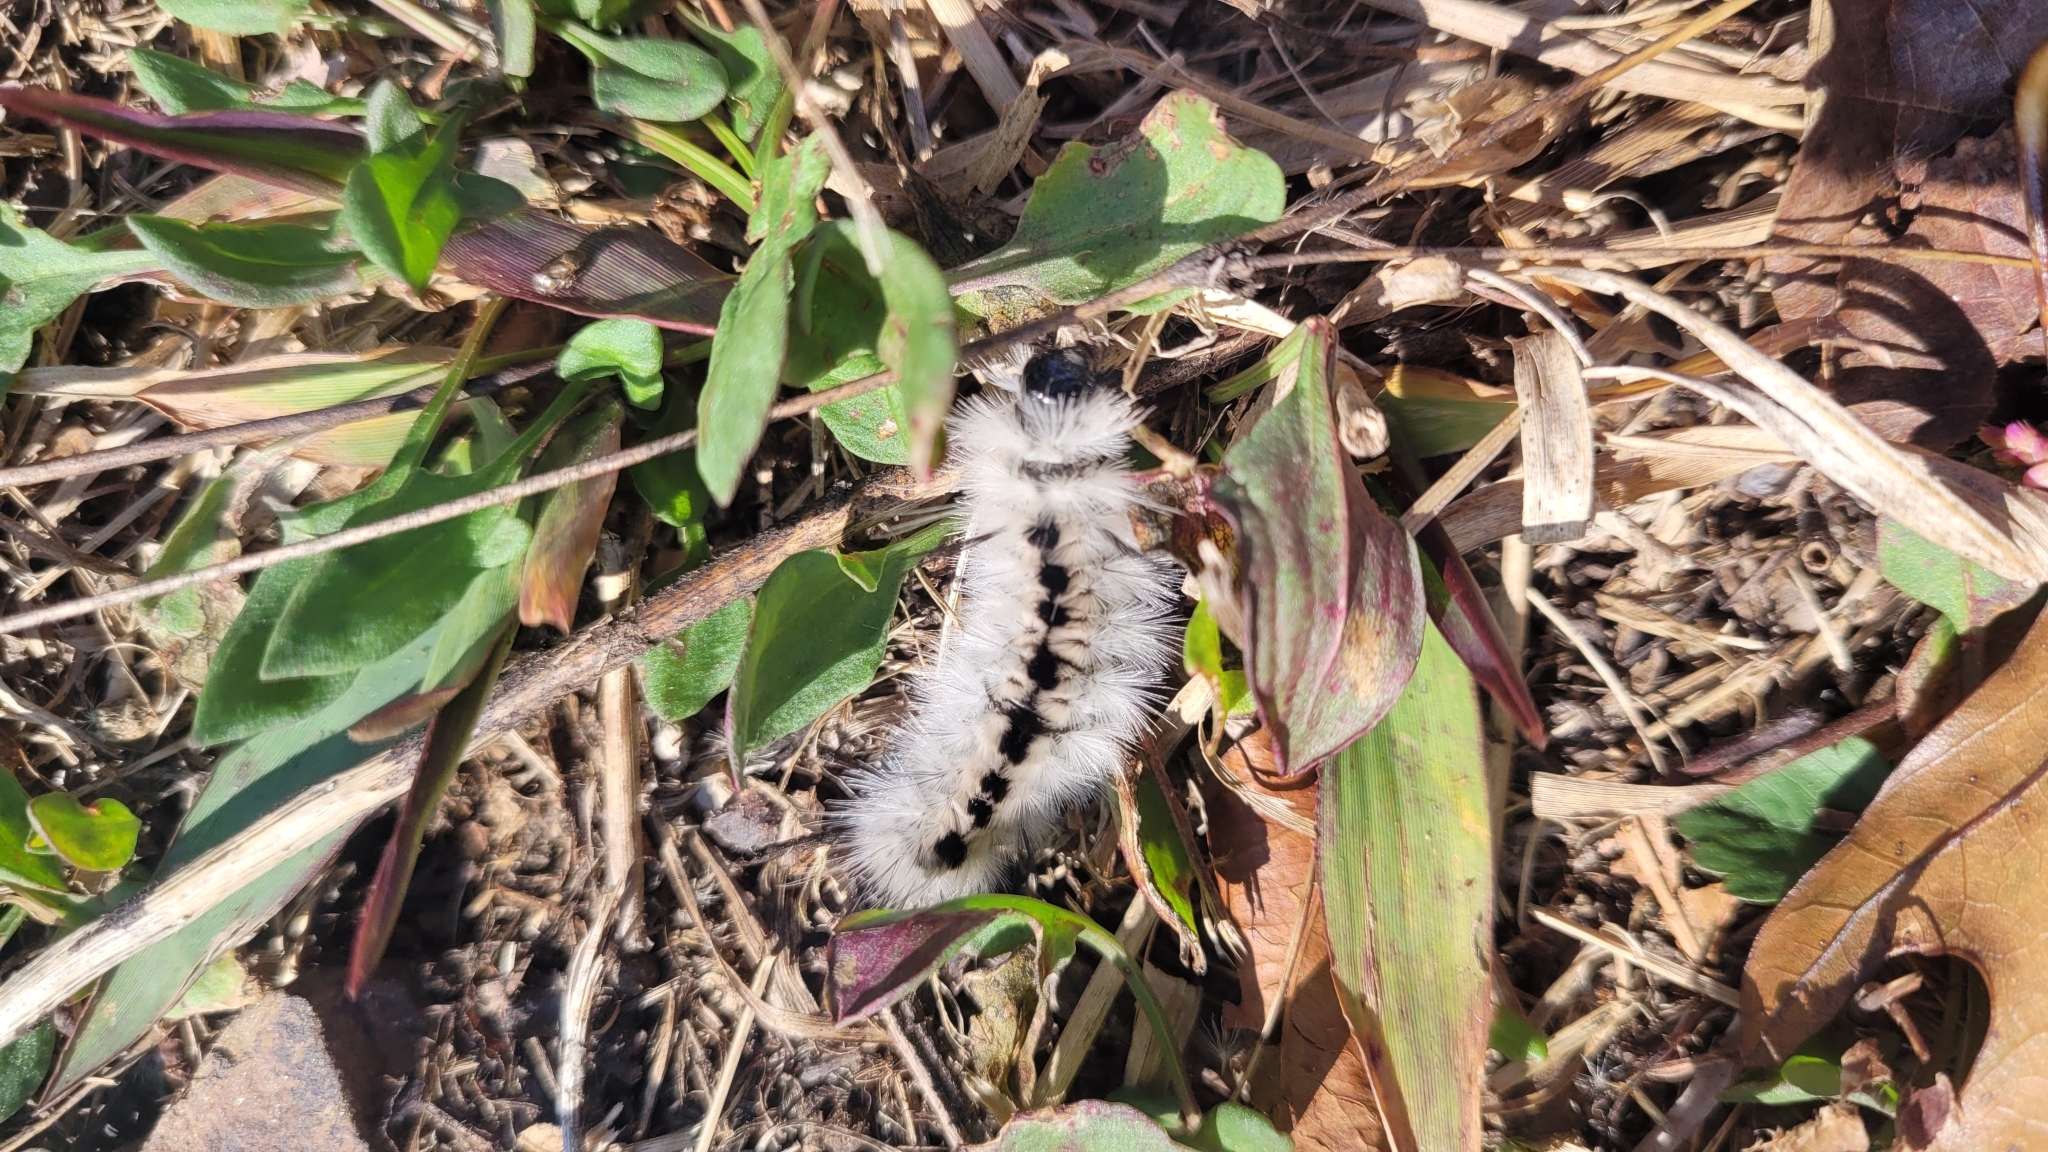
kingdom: Animalia
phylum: Arthropoda
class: Insecta
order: Lepidoptera
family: Erebidae
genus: Lophocampa
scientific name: Lophocampa caryae
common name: Hickory tussock moth
